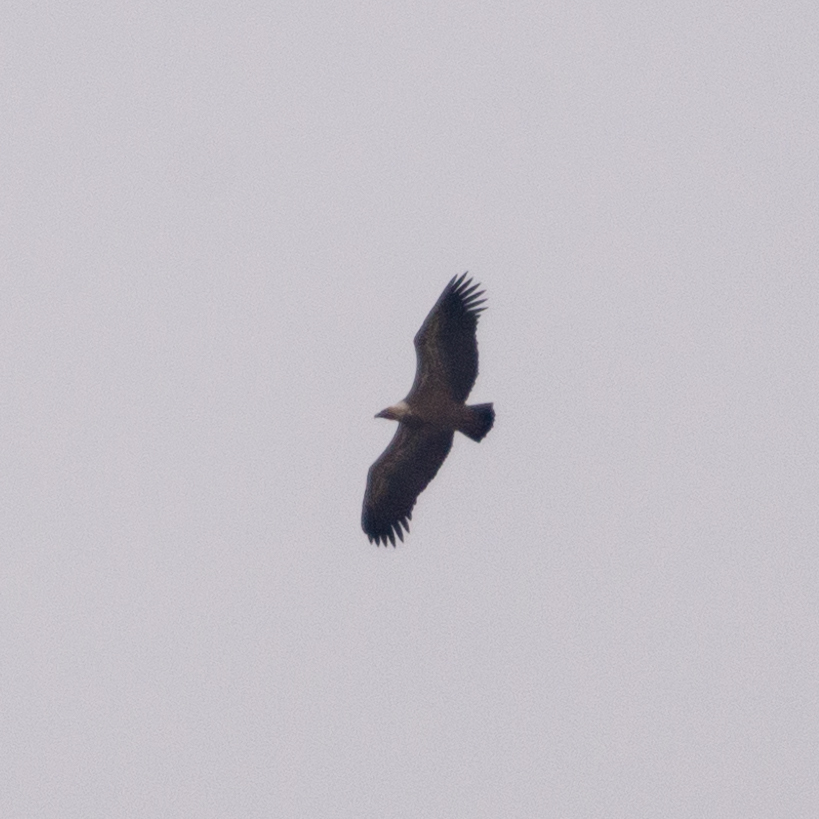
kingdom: Animalia
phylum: Chordata
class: Aves
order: Accipitriformes
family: Accipitridae
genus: Gyps
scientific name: Gyps fulvus
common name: Griffon vulture
